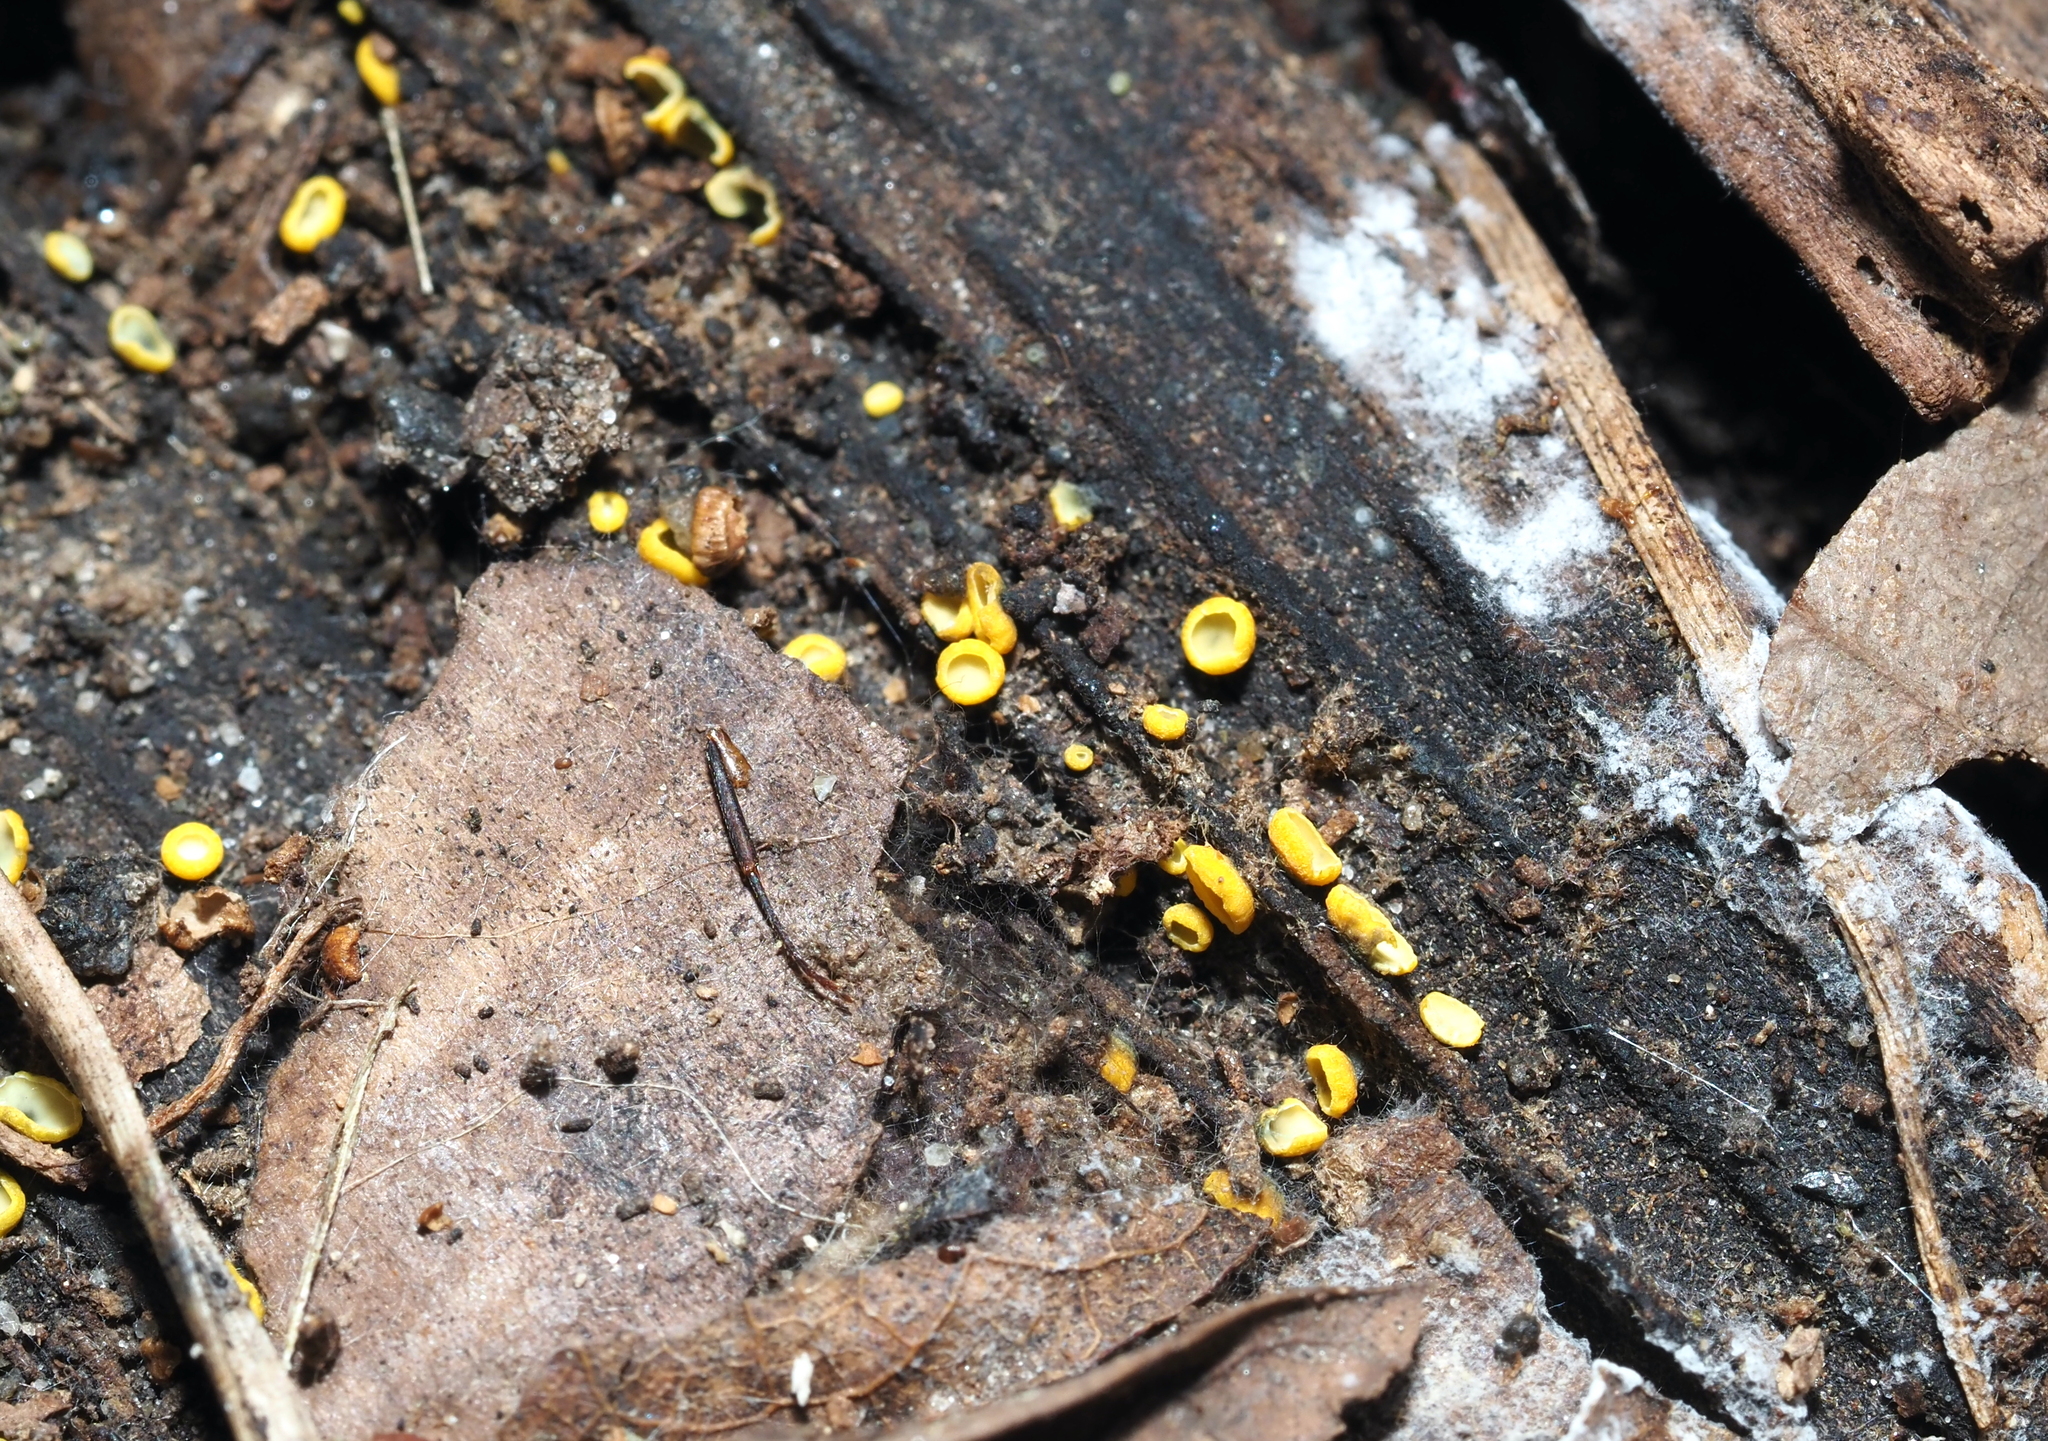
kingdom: Fungi
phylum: Ascomycota
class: Leotiomycetes
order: Helotiales
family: Chlorospleniaceae
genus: Chlorosplenium
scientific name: Chlorosplenium chlora
